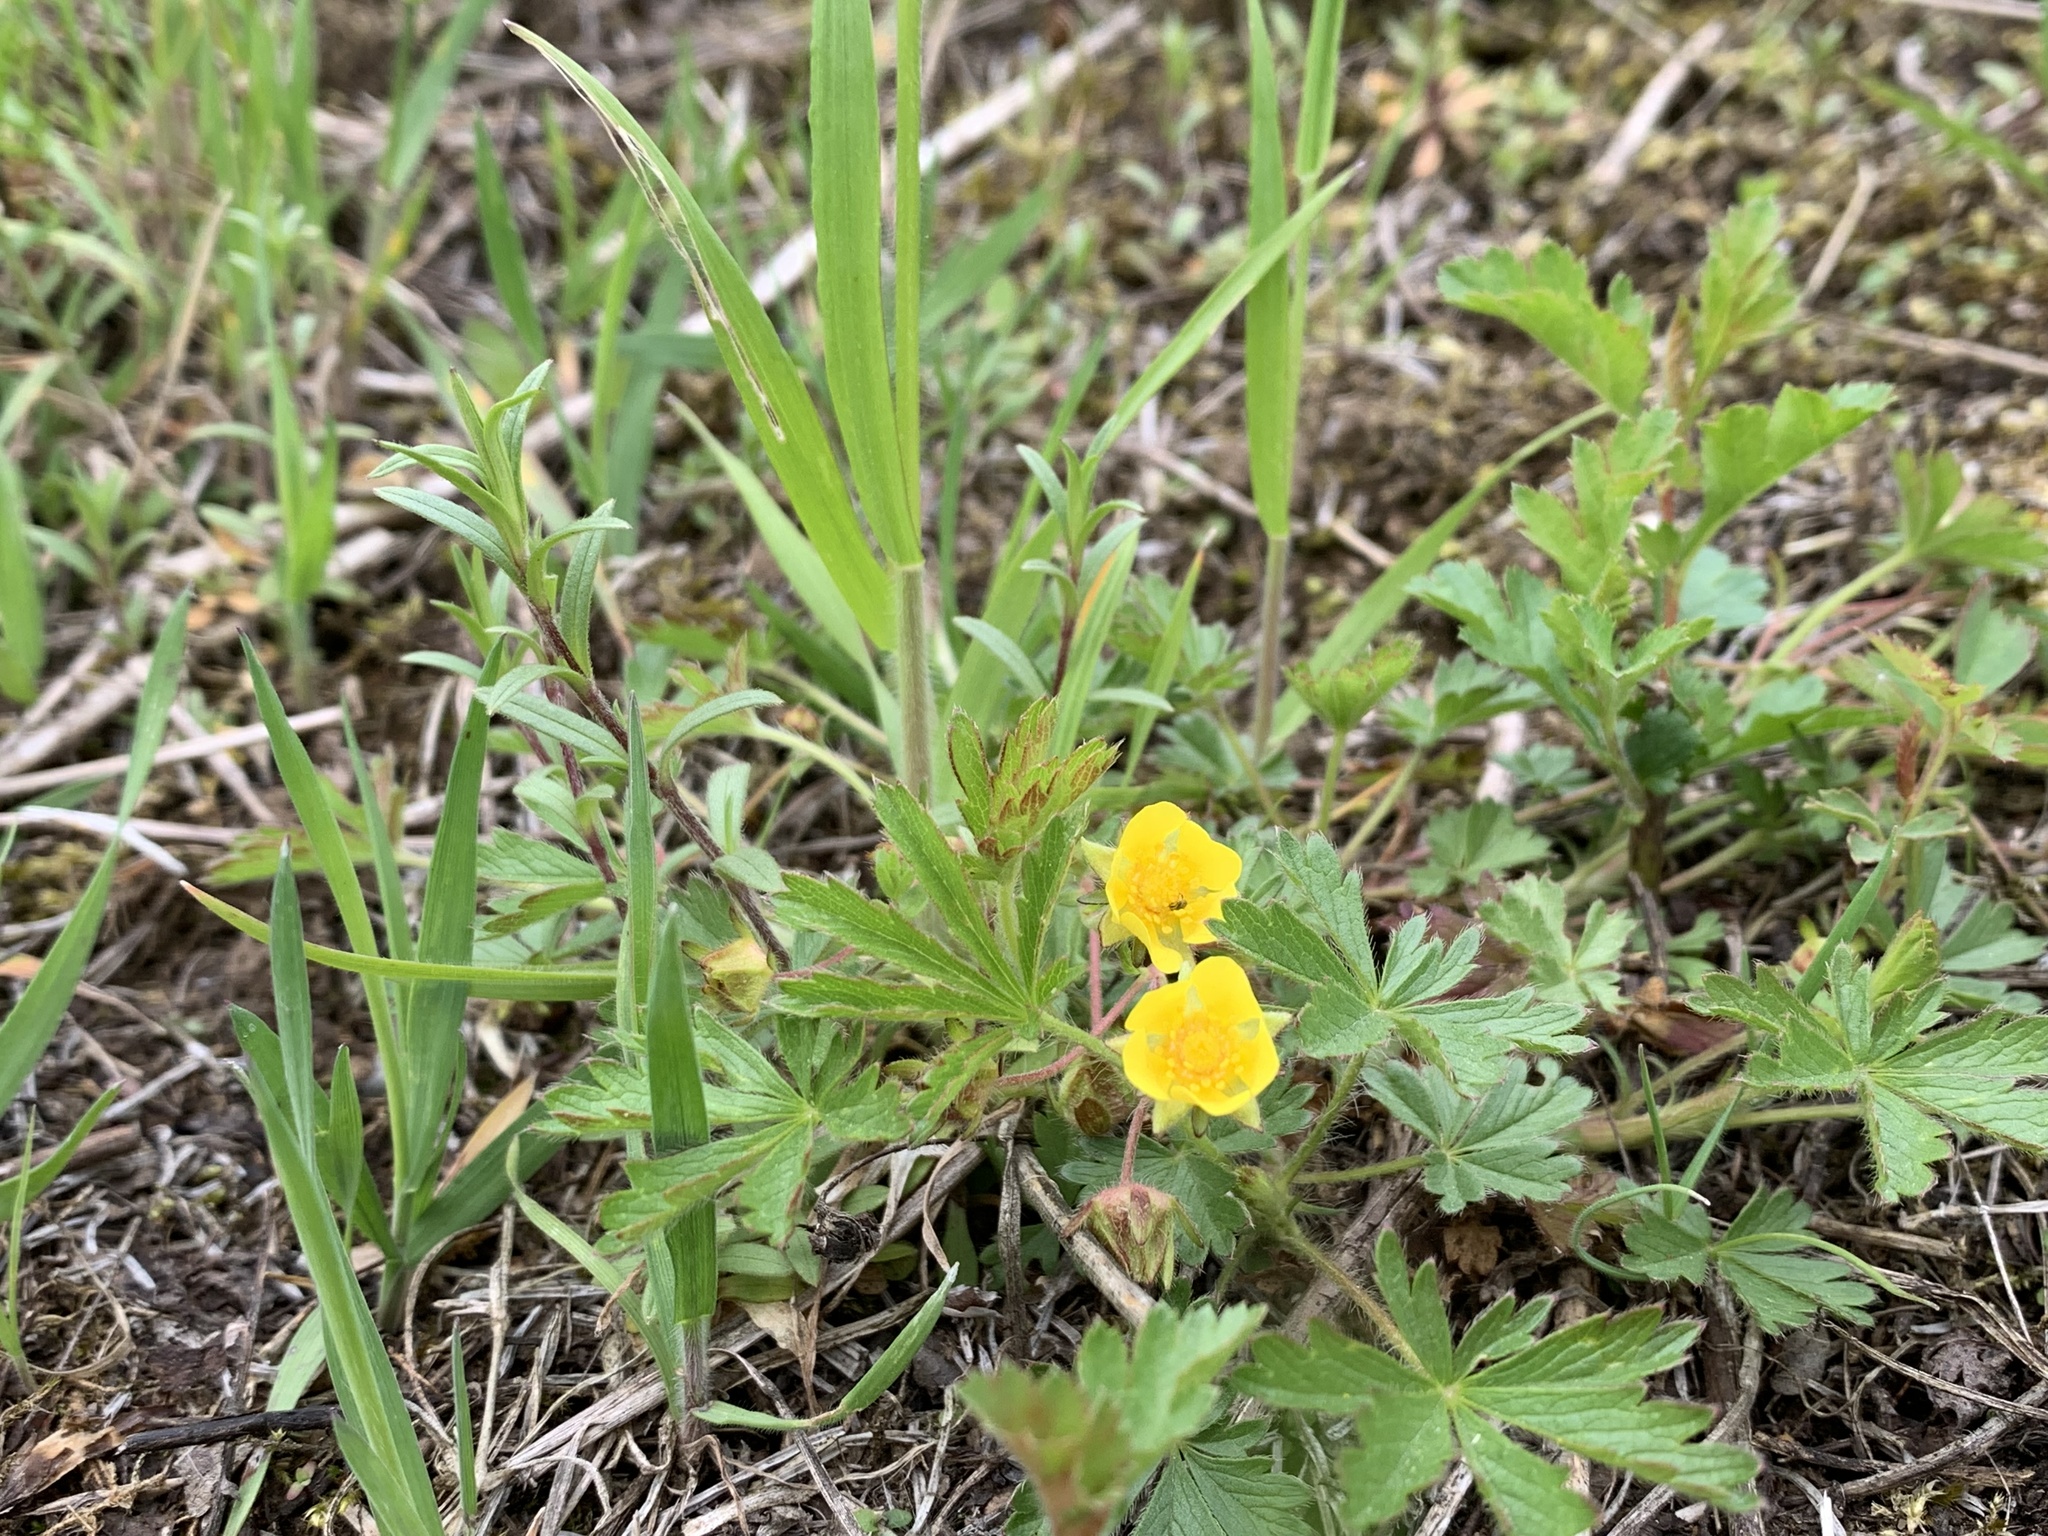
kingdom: Plantae
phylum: Tracheophyta
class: Magnoliopsida
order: Rosales
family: Rosaceae
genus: Potentilla
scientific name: Potentilla verna
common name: Spring cinquefoil
